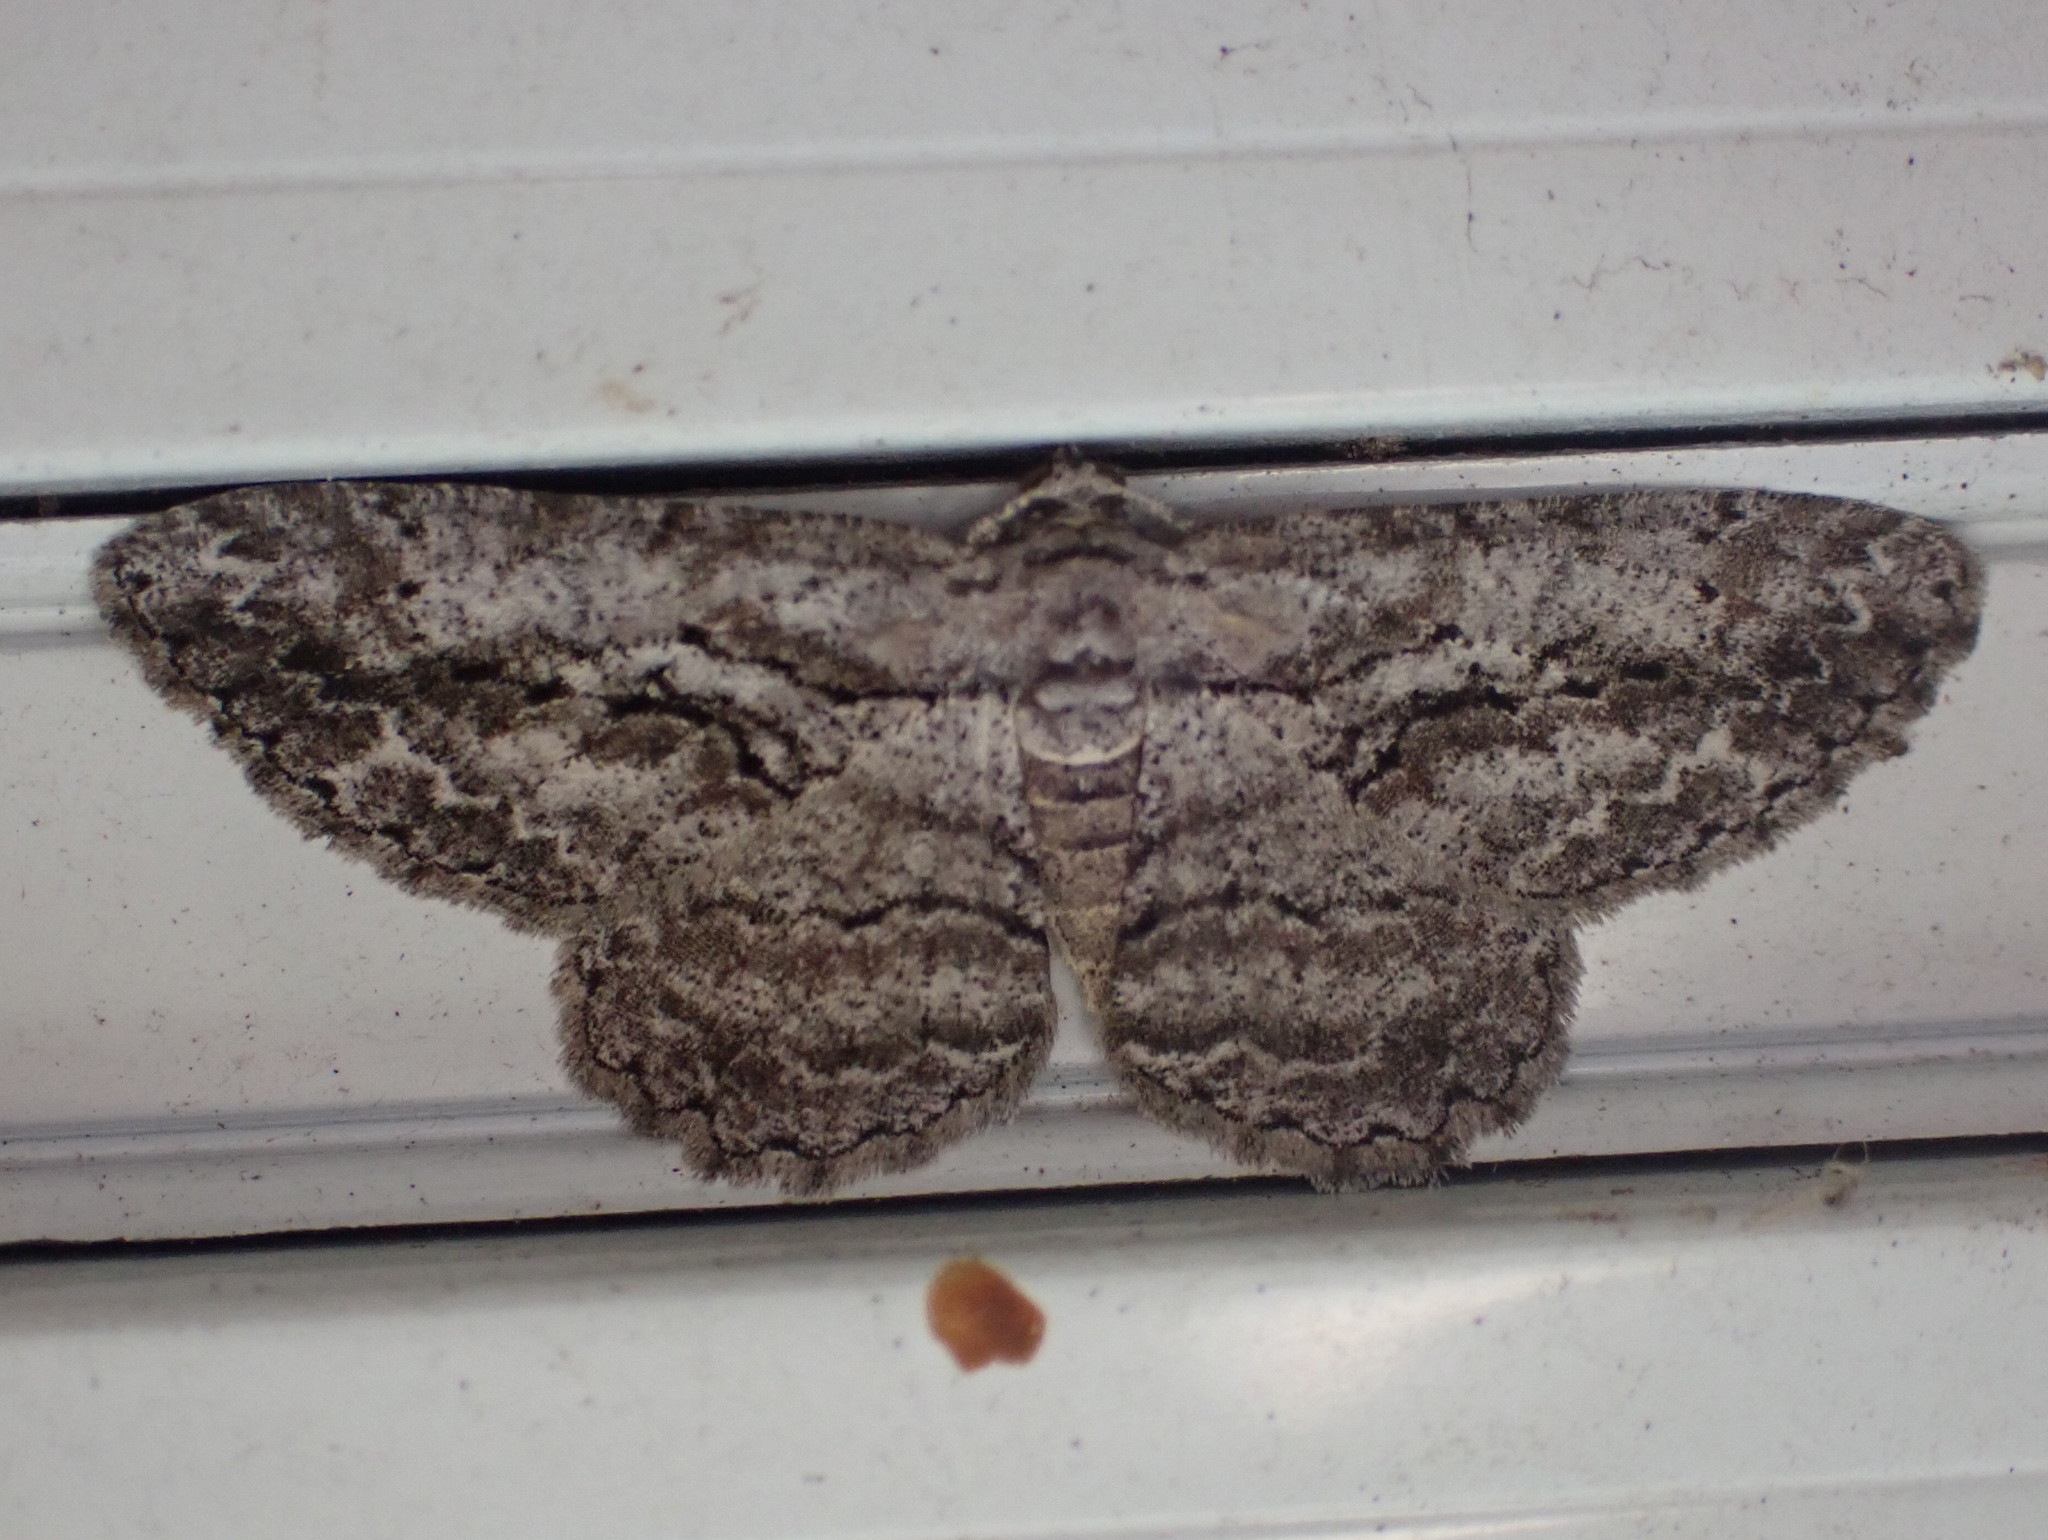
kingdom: Animalia
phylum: Arthropoda
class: Insecta
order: Lepidoptera
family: Geometridae
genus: Anavitrinella
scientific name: Anavitrinella pampinaria
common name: Common gray
